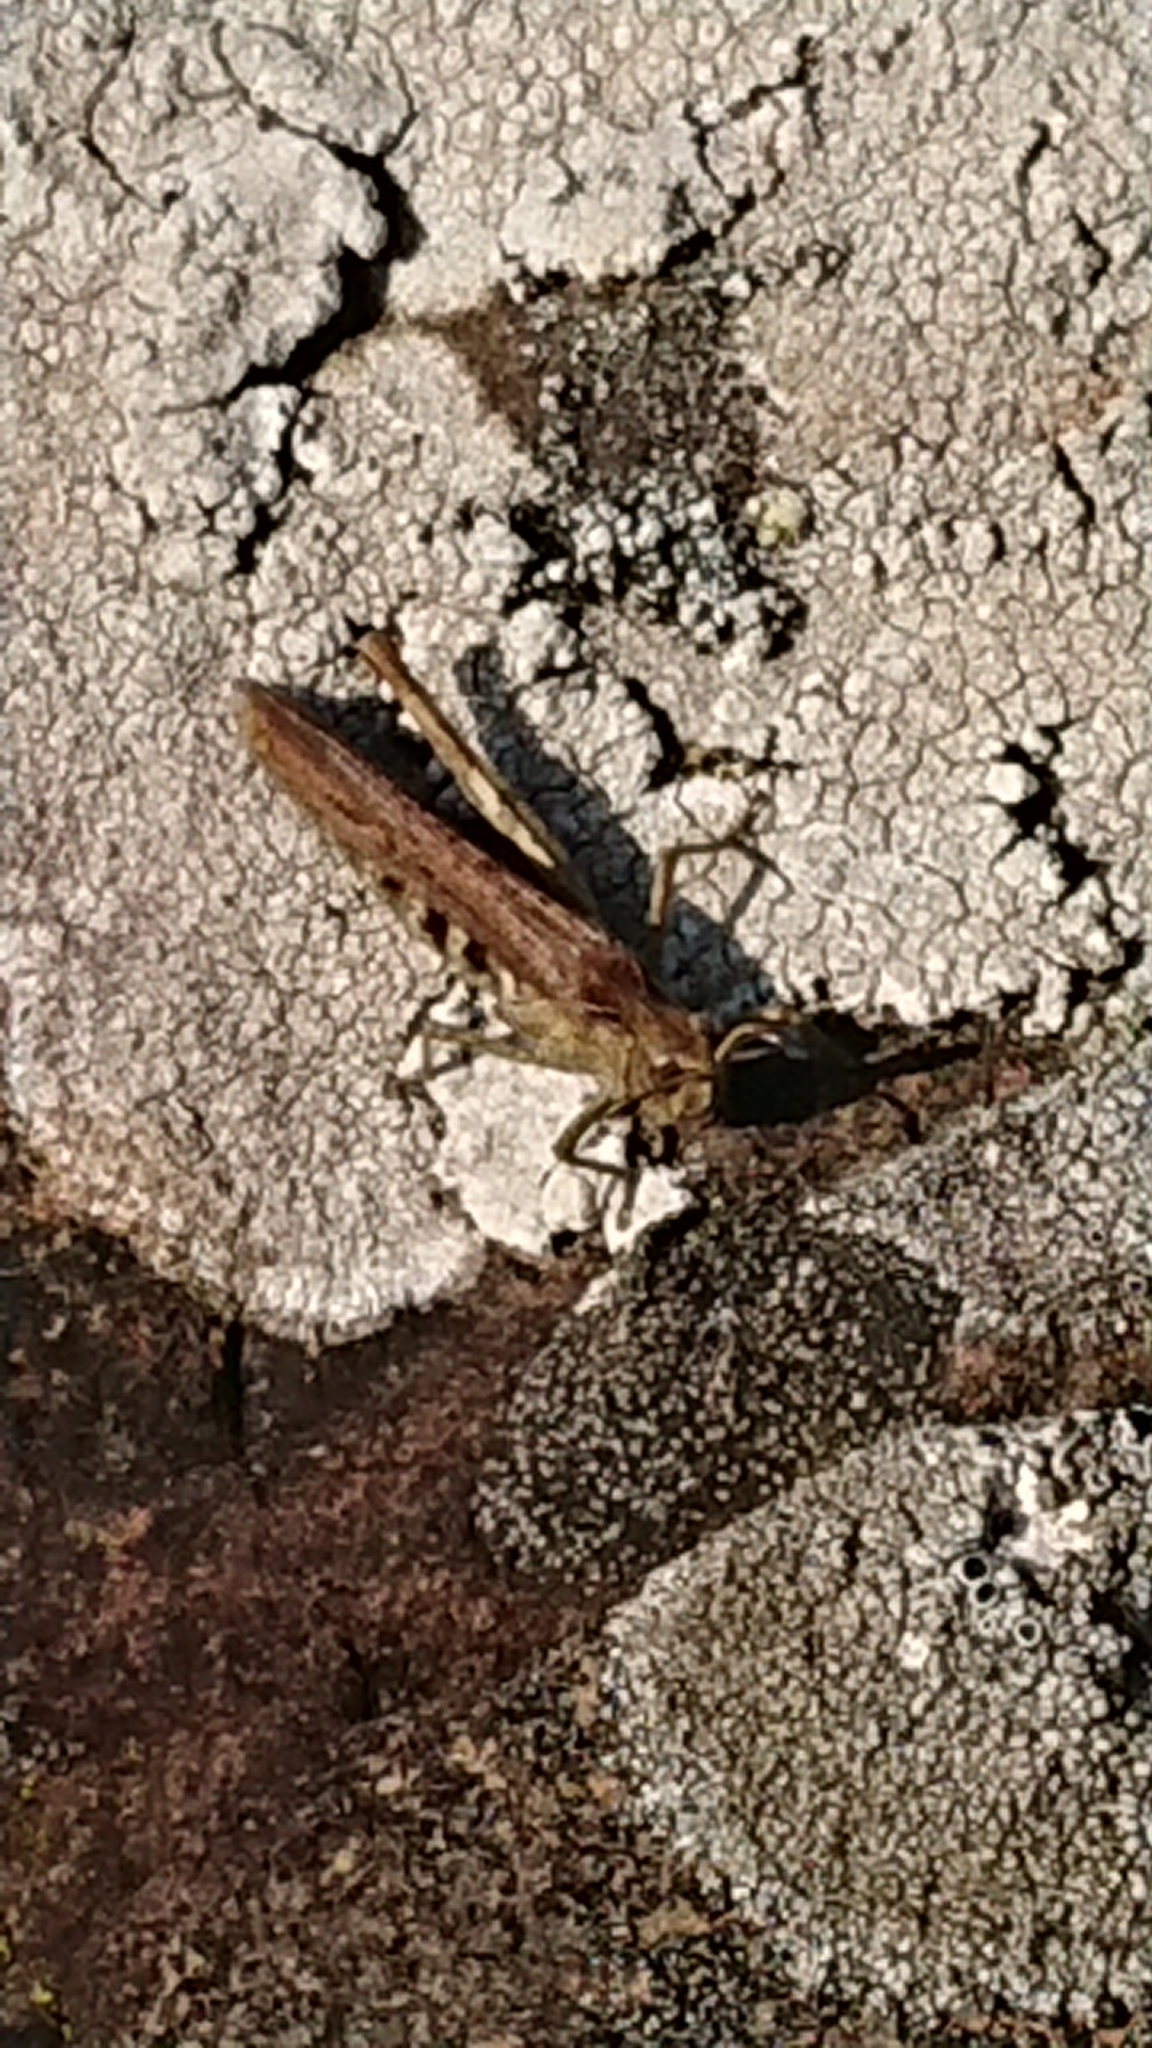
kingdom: Animalia
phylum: Arthropoda
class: Insecta
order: Orthoptera
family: Acrididae
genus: Chorthippus
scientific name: Chorthippus brunneus
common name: Field grasshopper
